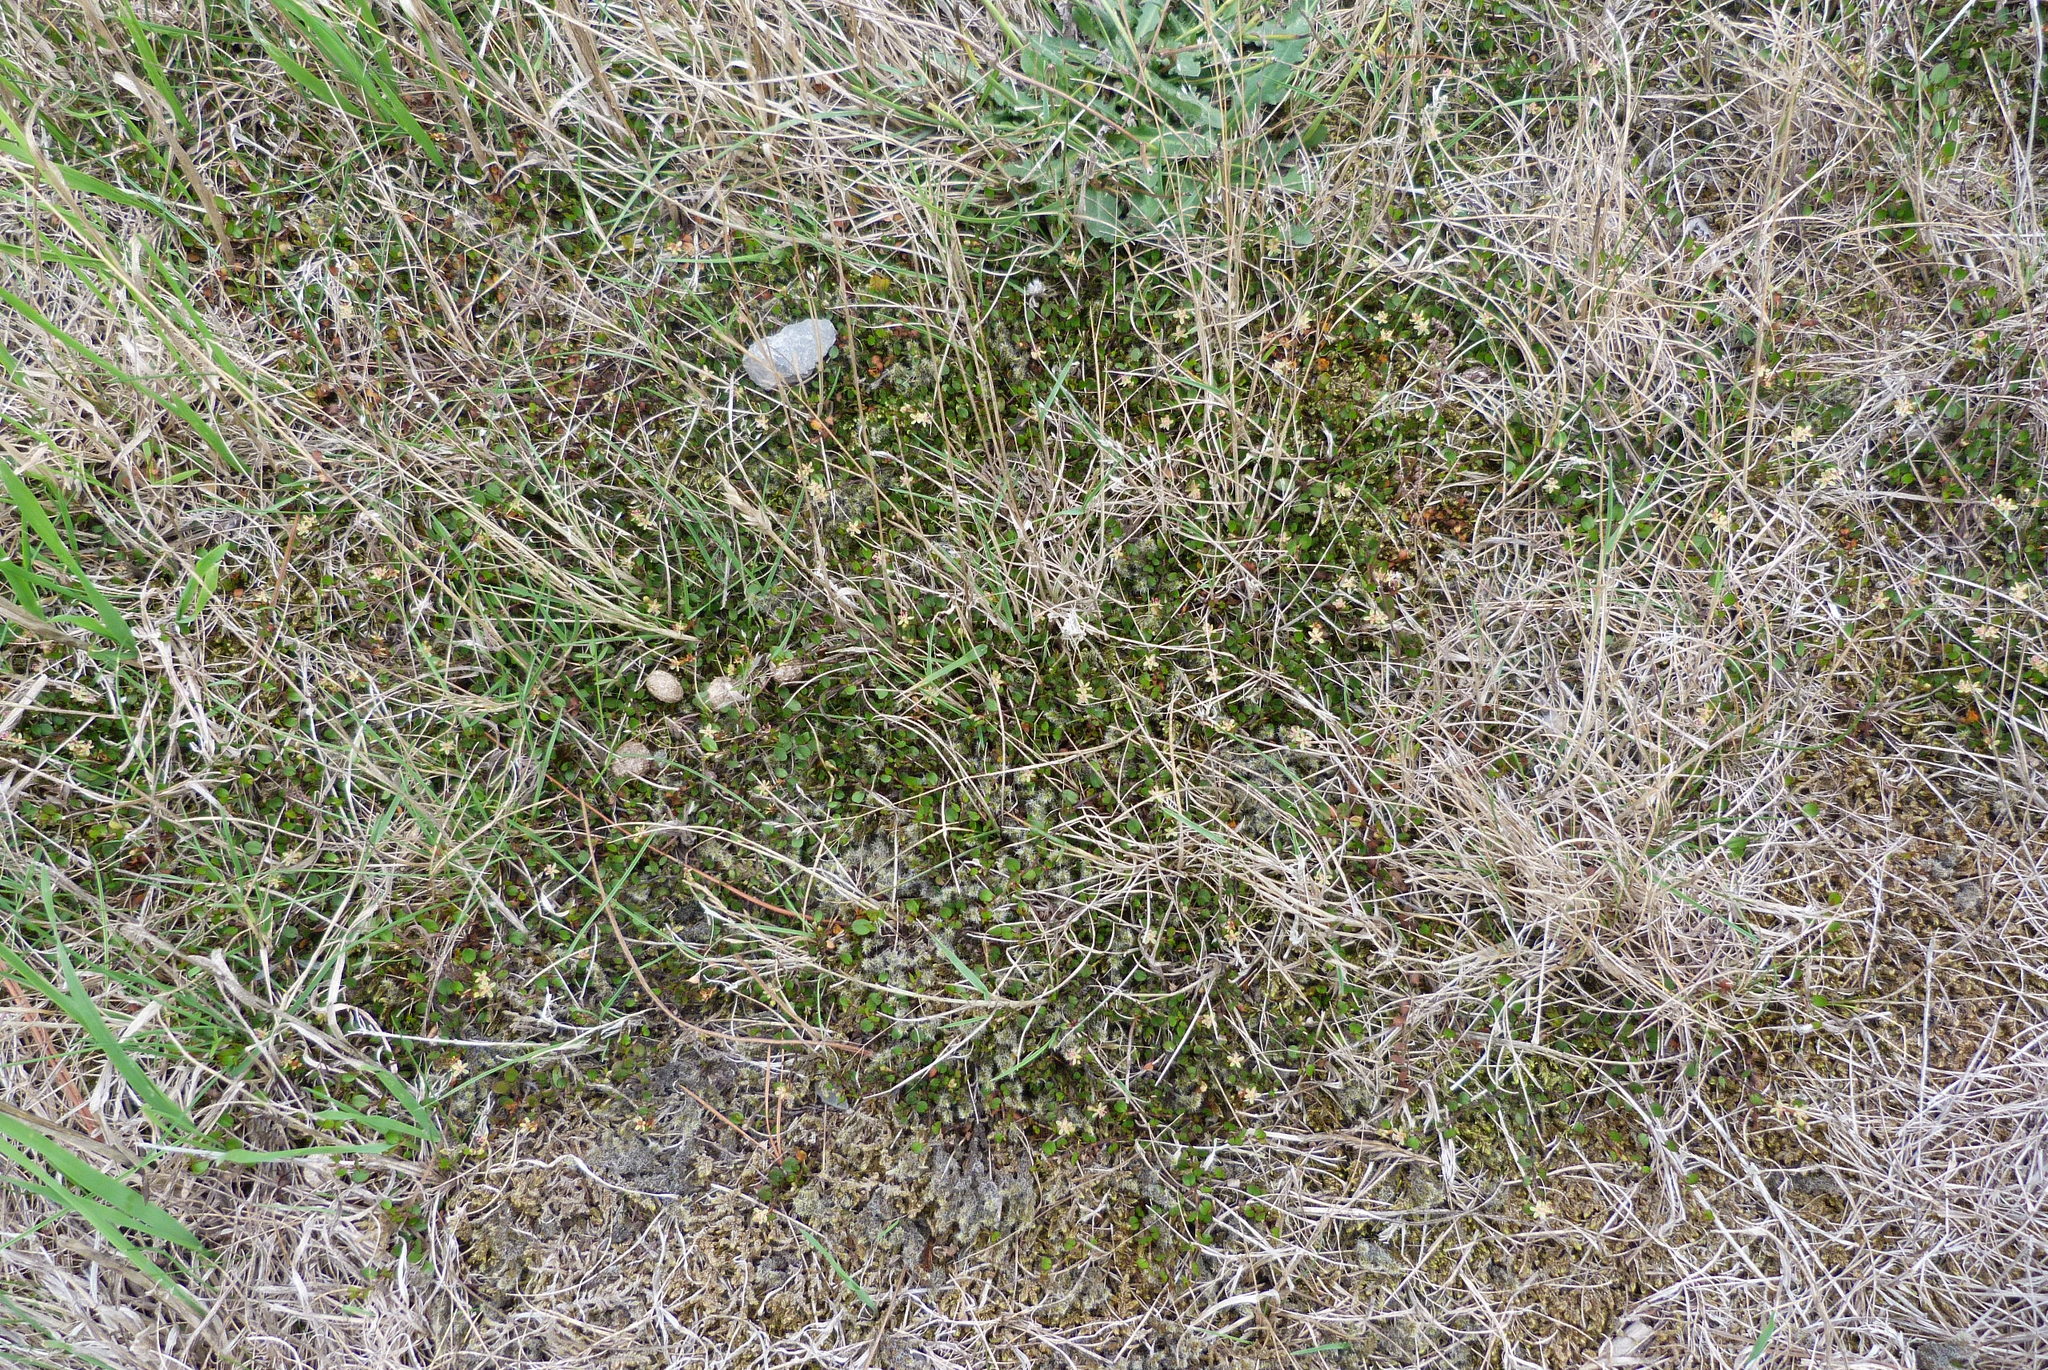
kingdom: Plantae
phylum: Tracheophyta
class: Magnoliopsida
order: Caryophyllales
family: Polygonaceae
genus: Muehlenbeckia
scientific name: Muehlenbeckia axillaris
